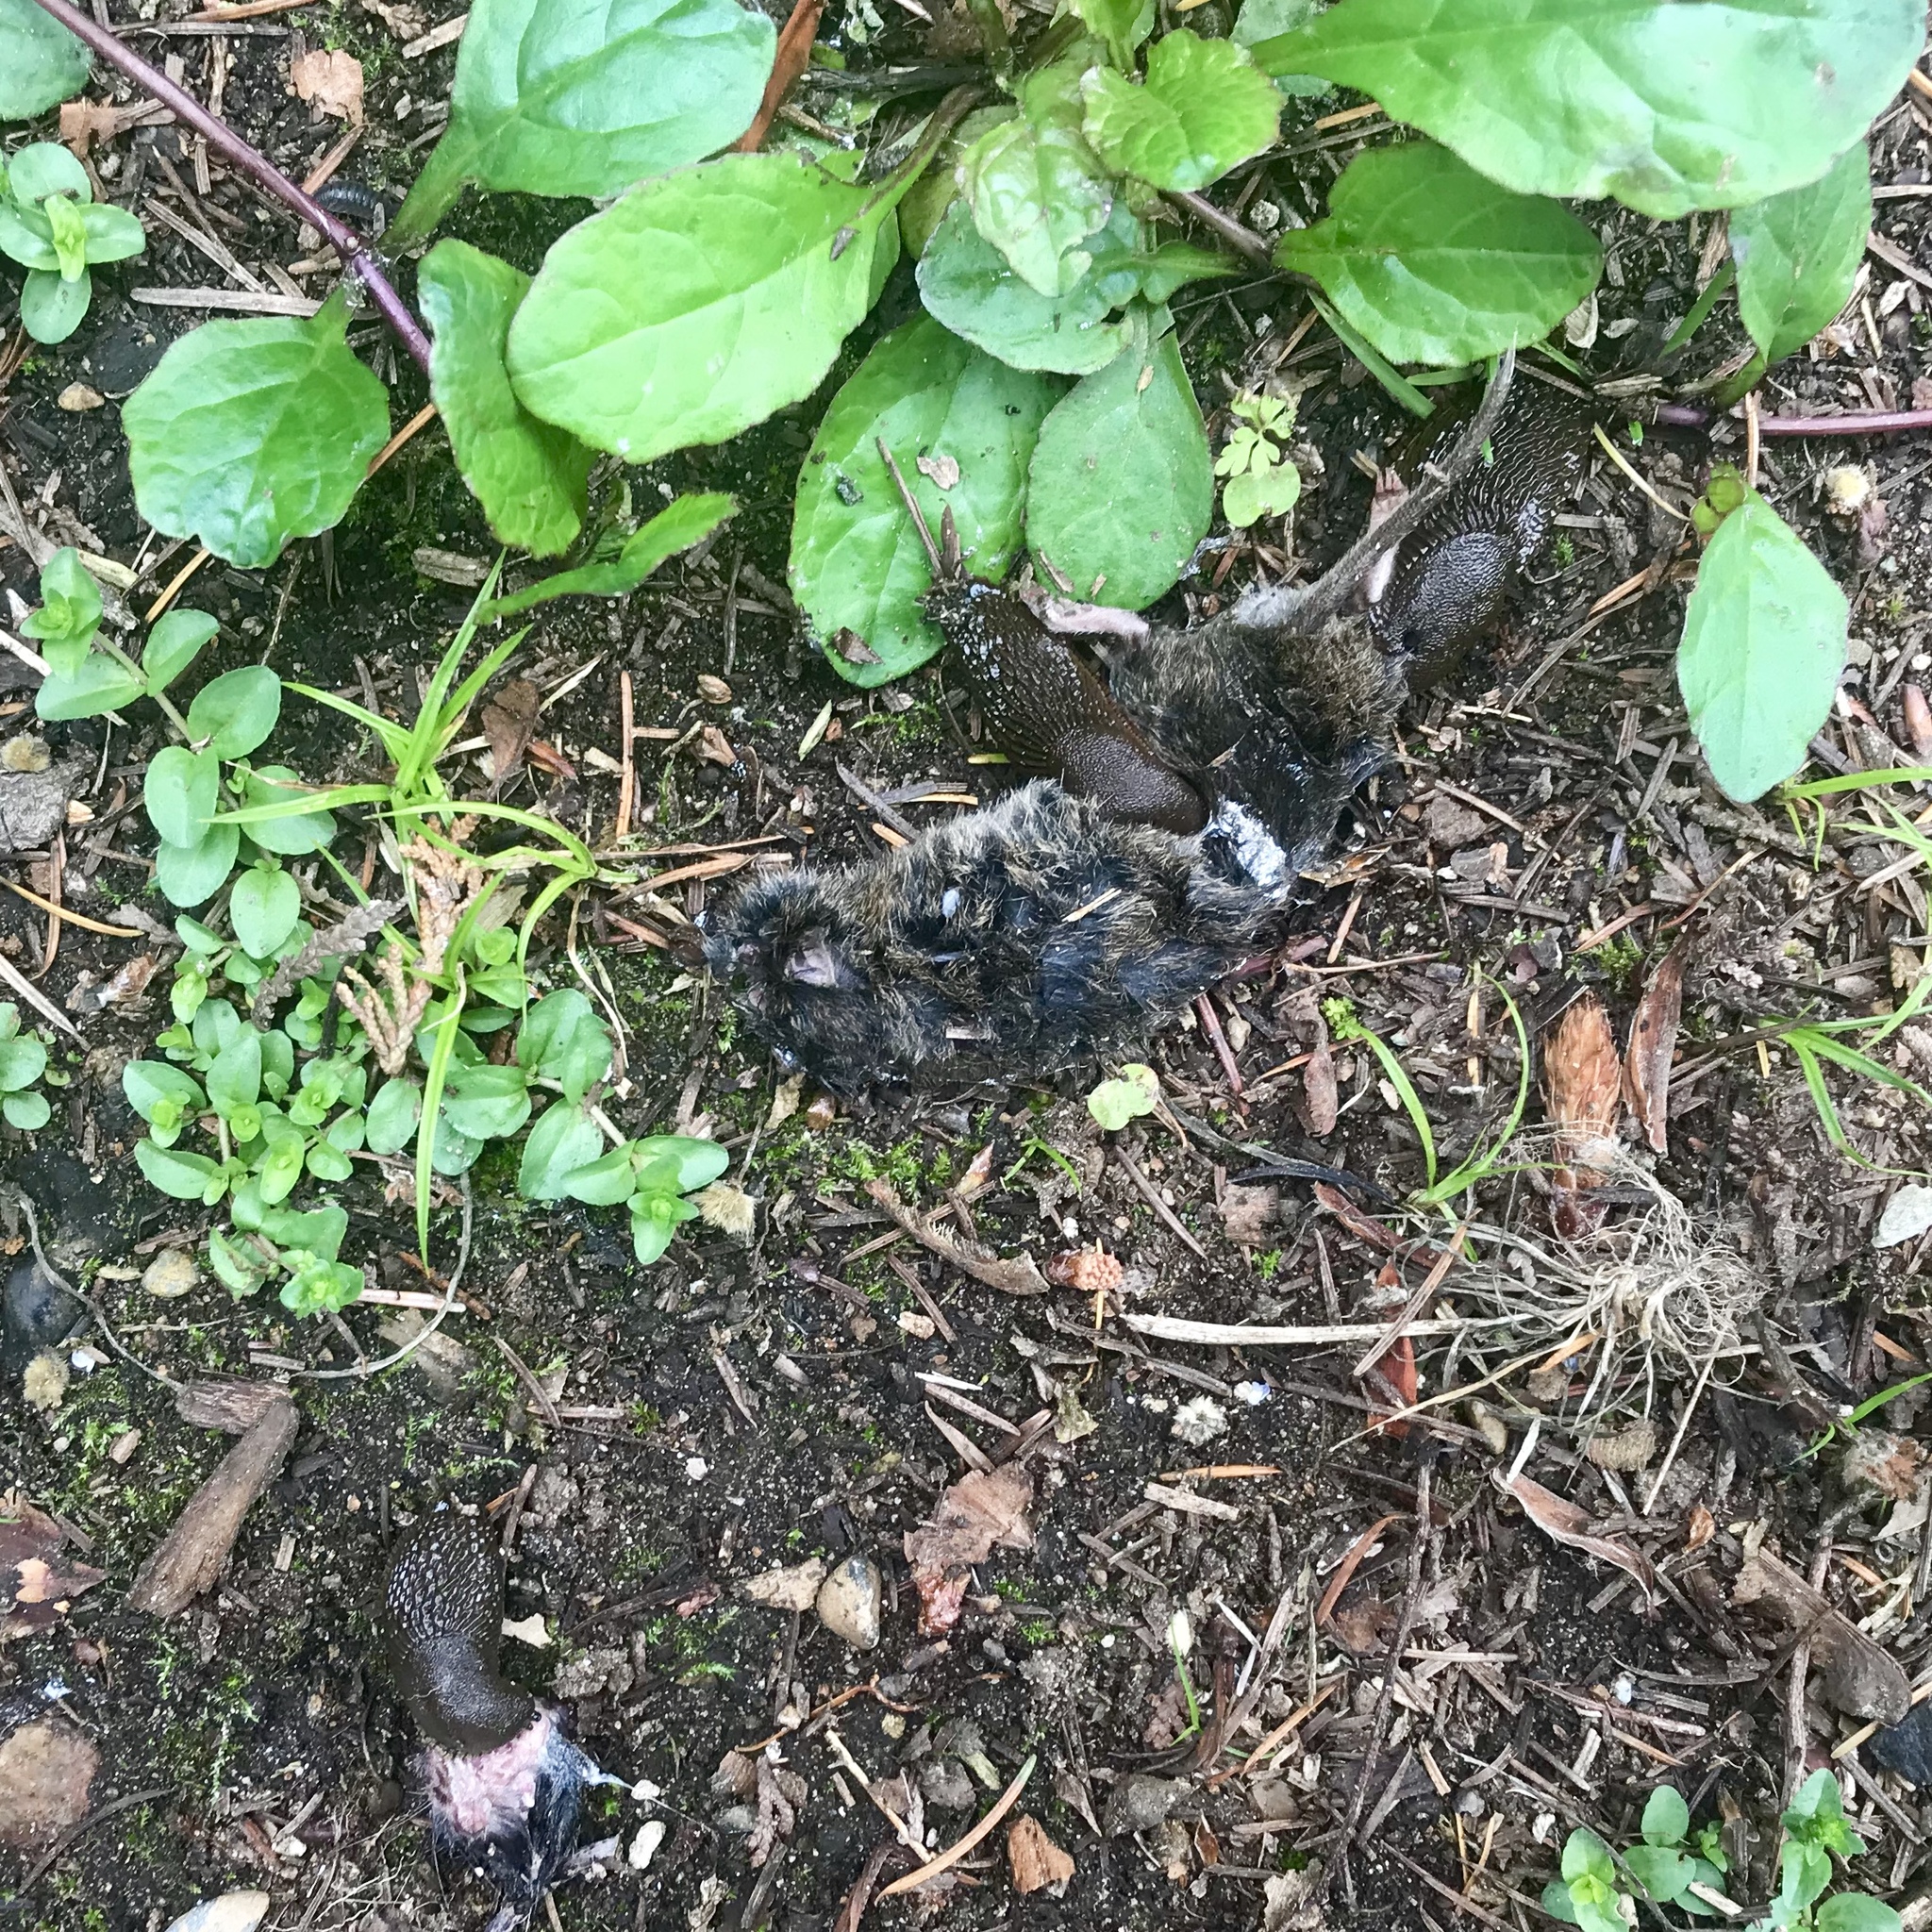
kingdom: Animalia
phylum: Mollusca
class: Gastropoda
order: Stylommatophora
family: Arionidae
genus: Arion
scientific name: Arion
